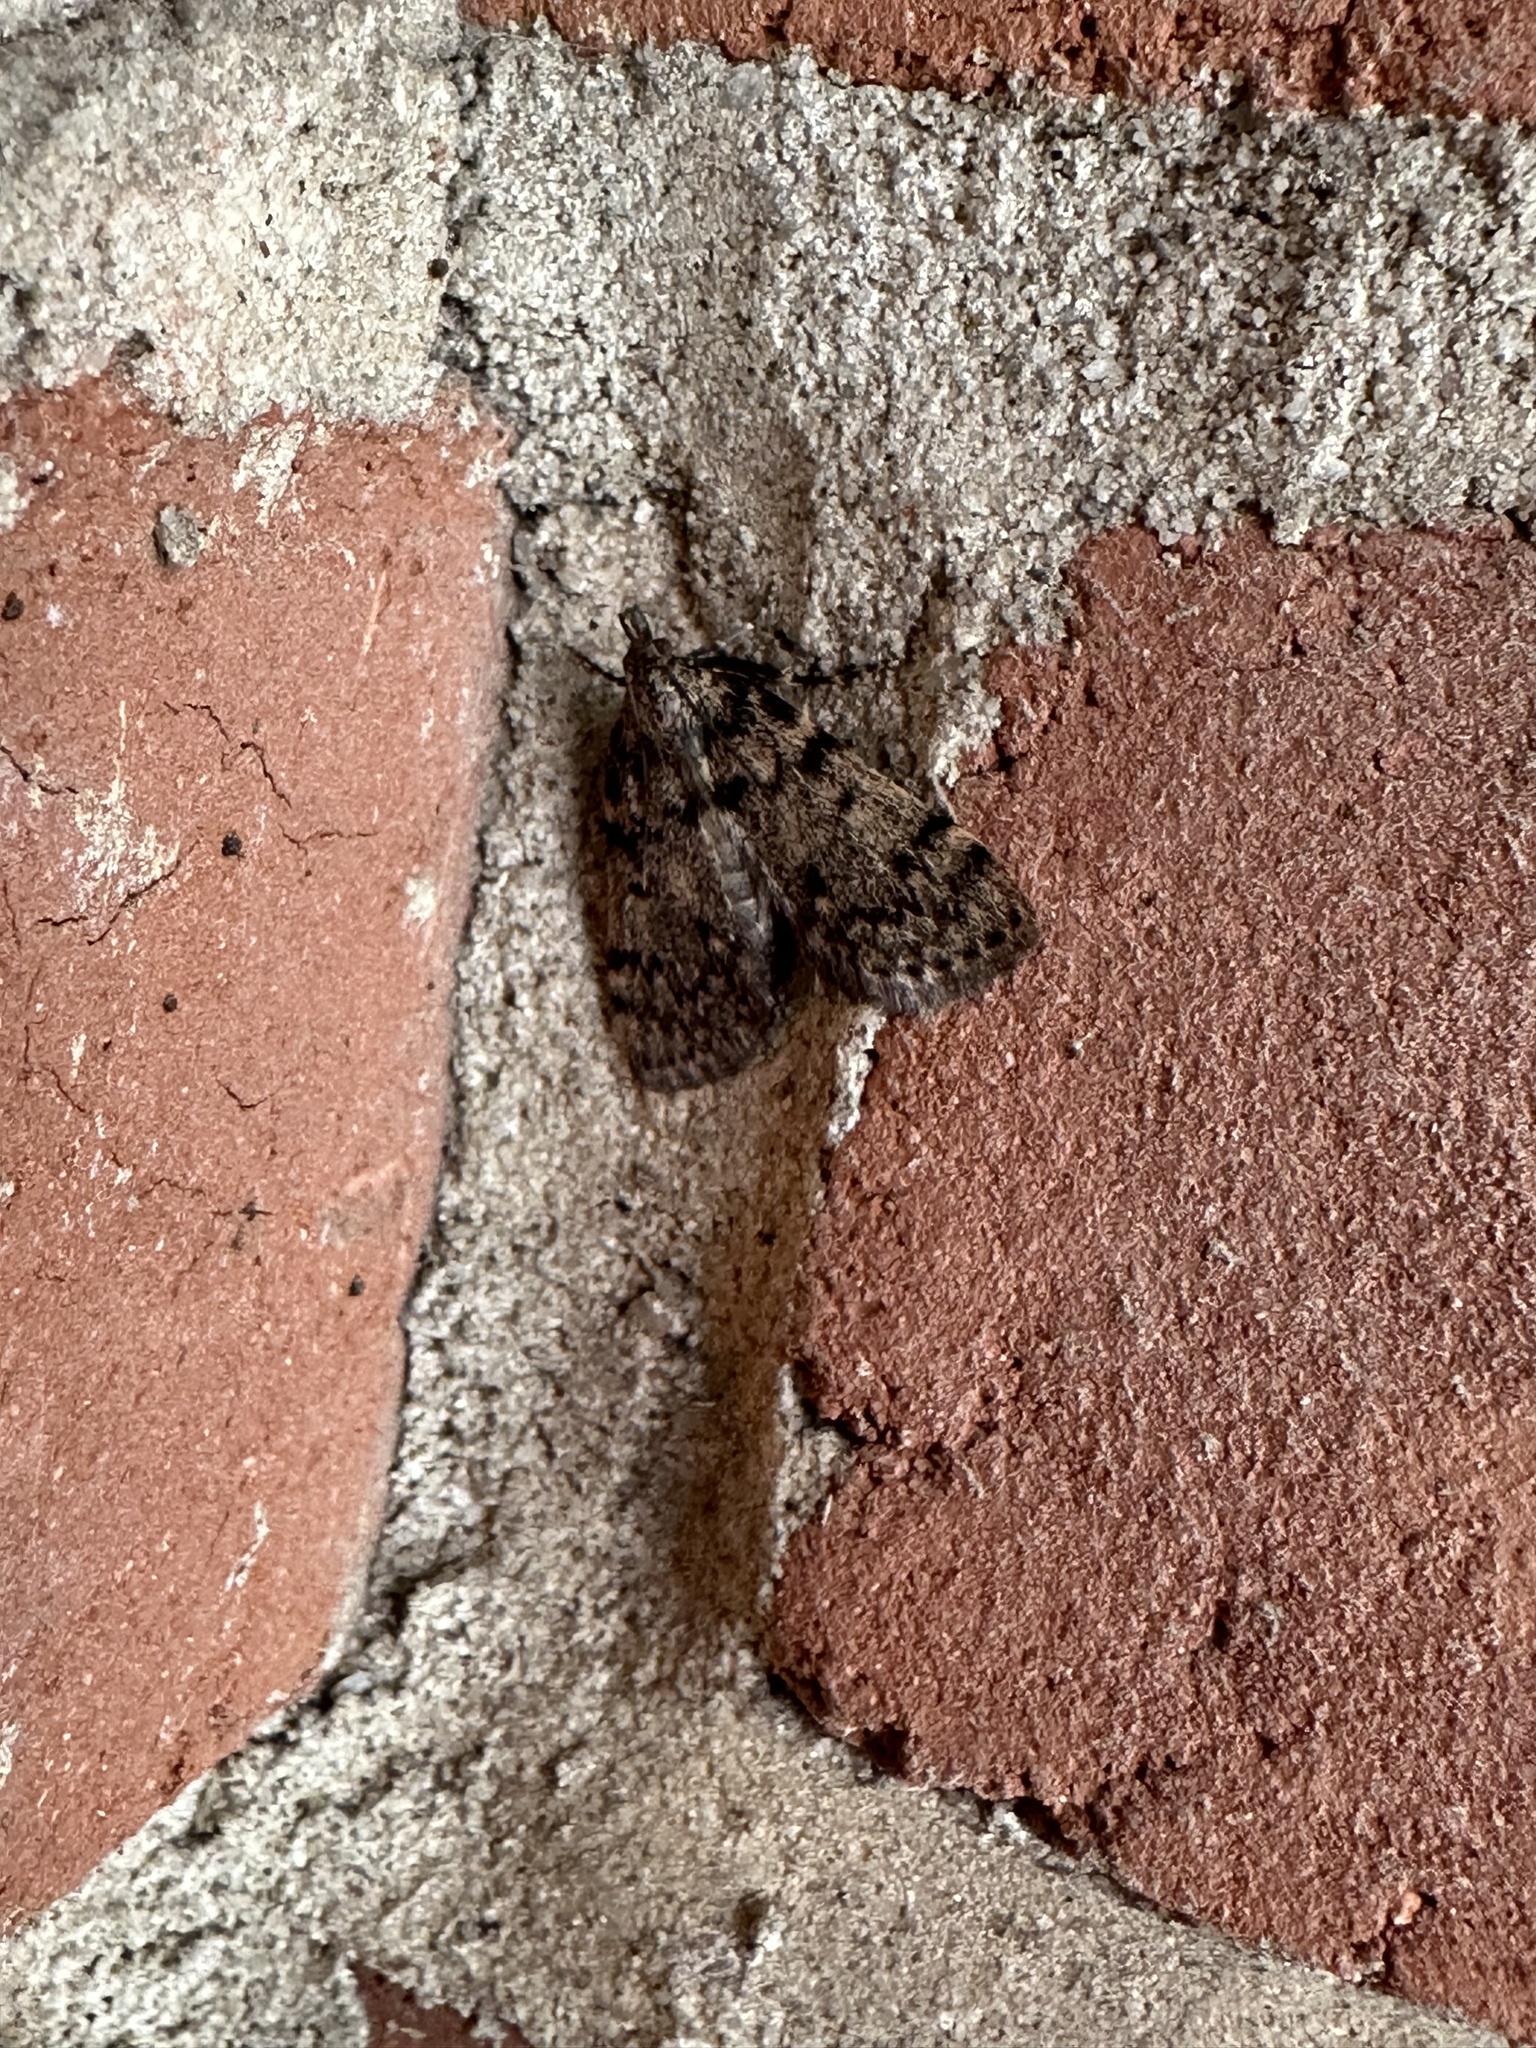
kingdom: Animalia
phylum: Arthropoda
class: Insecta
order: Lepidoptera
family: Pyralidae
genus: Aglossa
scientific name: Aglossa pinguinalis
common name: Large tabby
